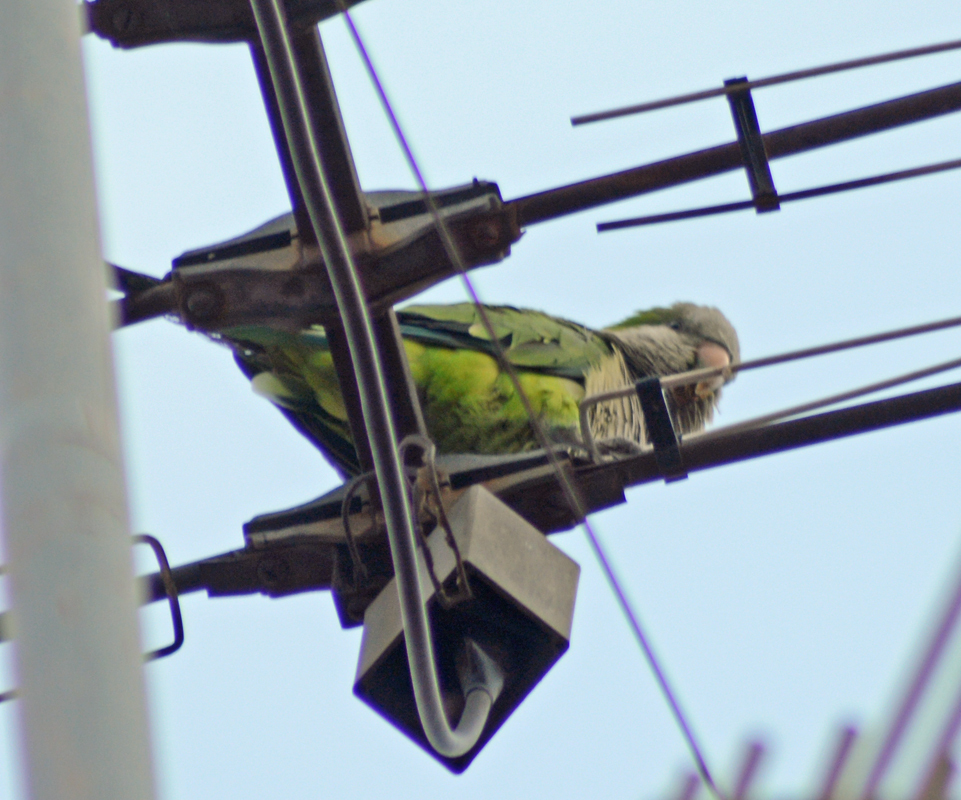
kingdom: Animalia
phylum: Chordata
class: Aves
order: Psittaciformes
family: Psittacidae
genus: Myiopsitta
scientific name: Myiopsitta monachus
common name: Monk parakeet
